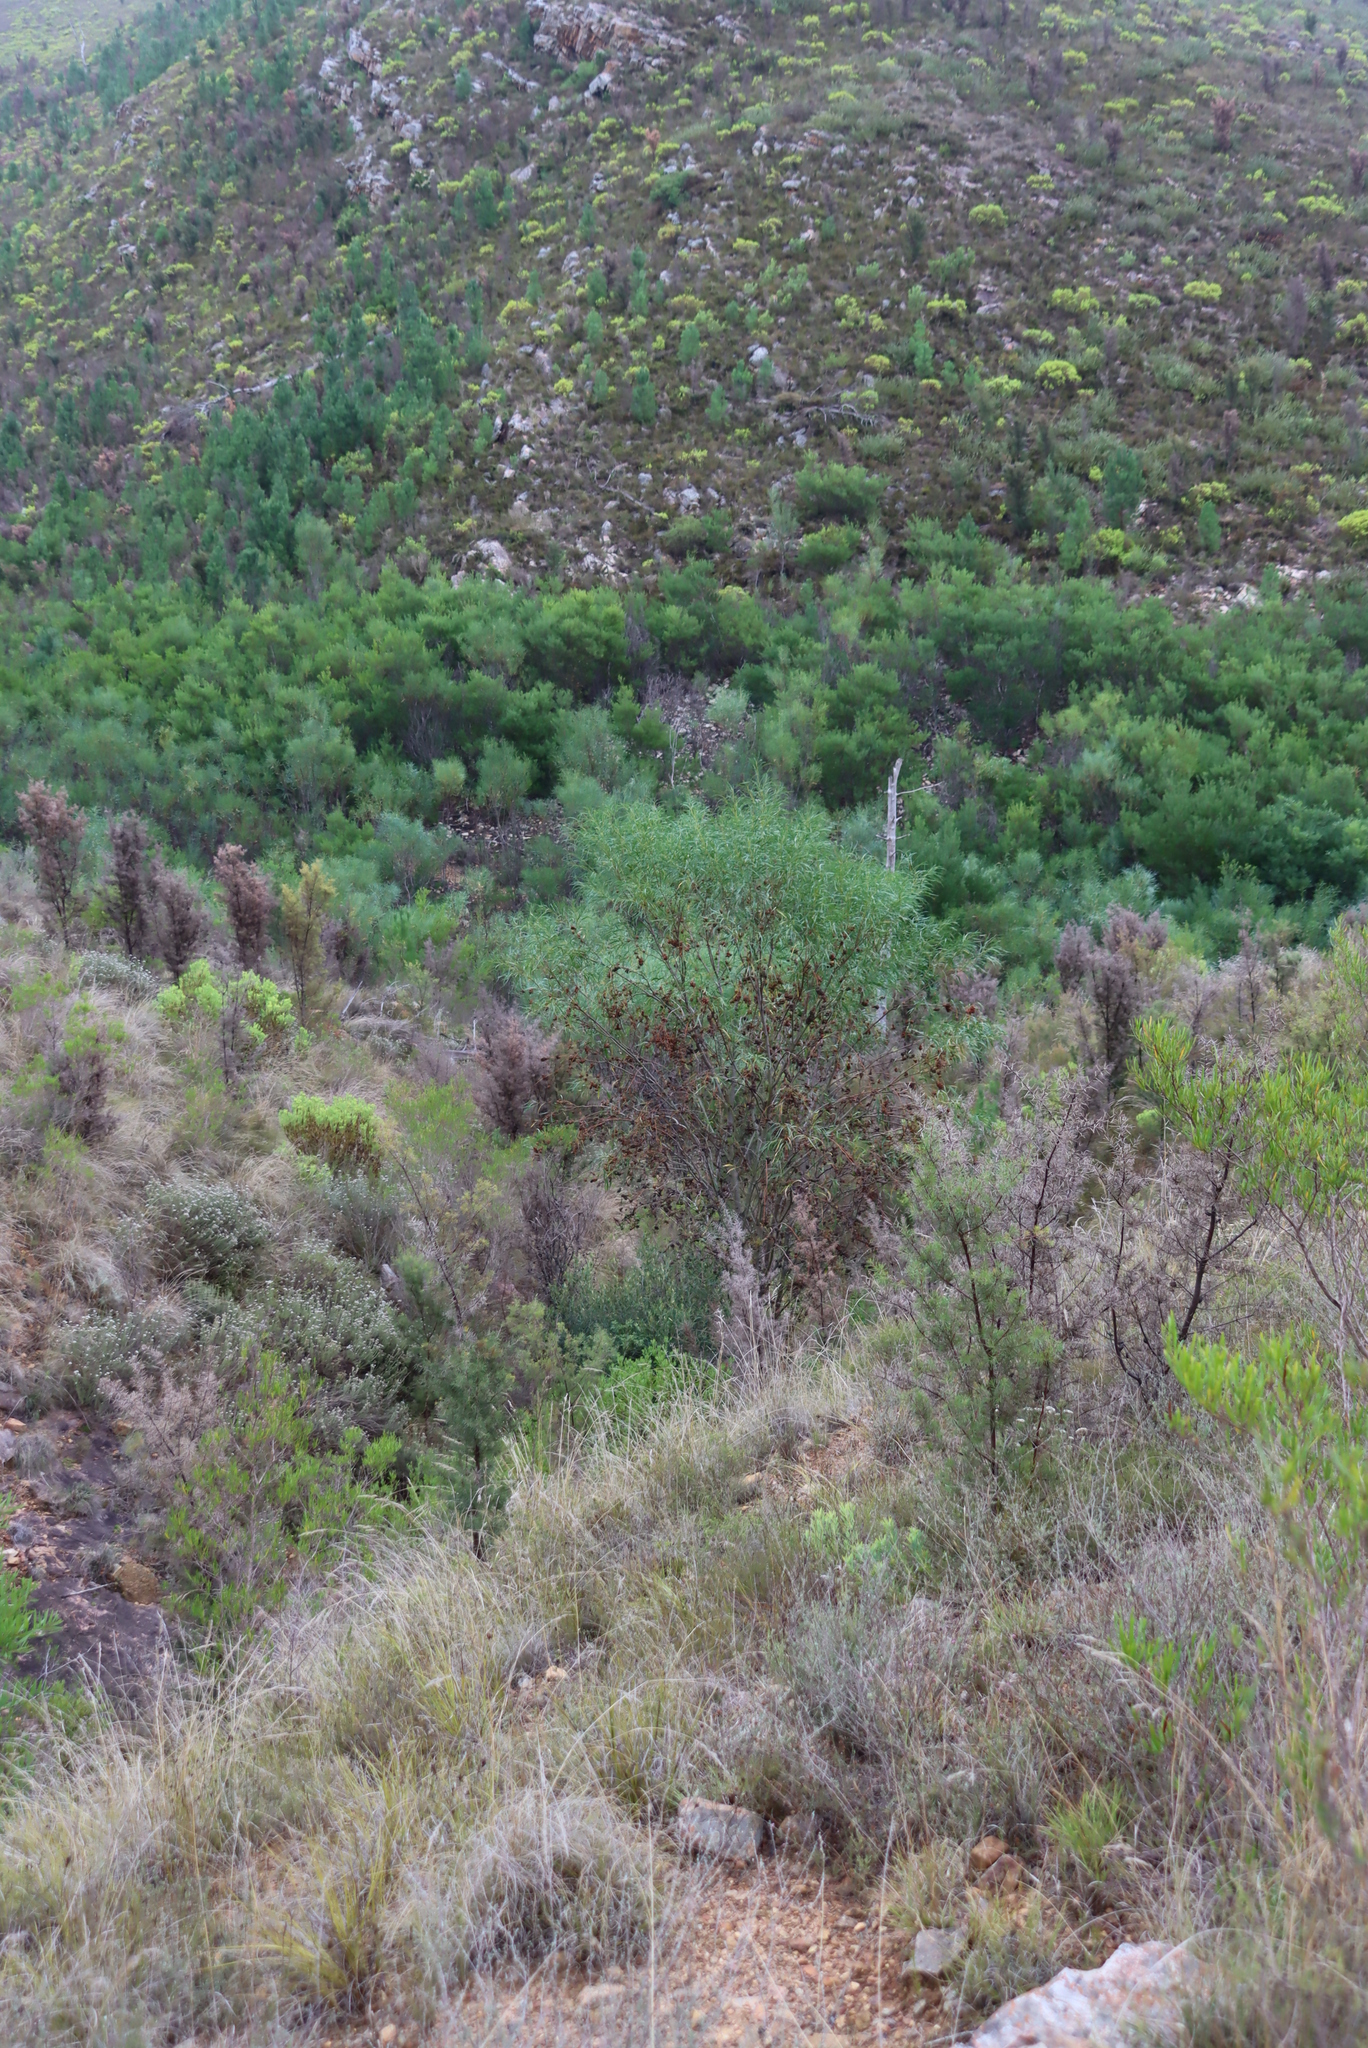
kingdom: Plantae
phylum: Tracheophyta
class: Magnoliopsida
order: Fabales
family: Fabaceae
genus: Acacia
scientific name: Acacia saligna
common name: Orange wattle
